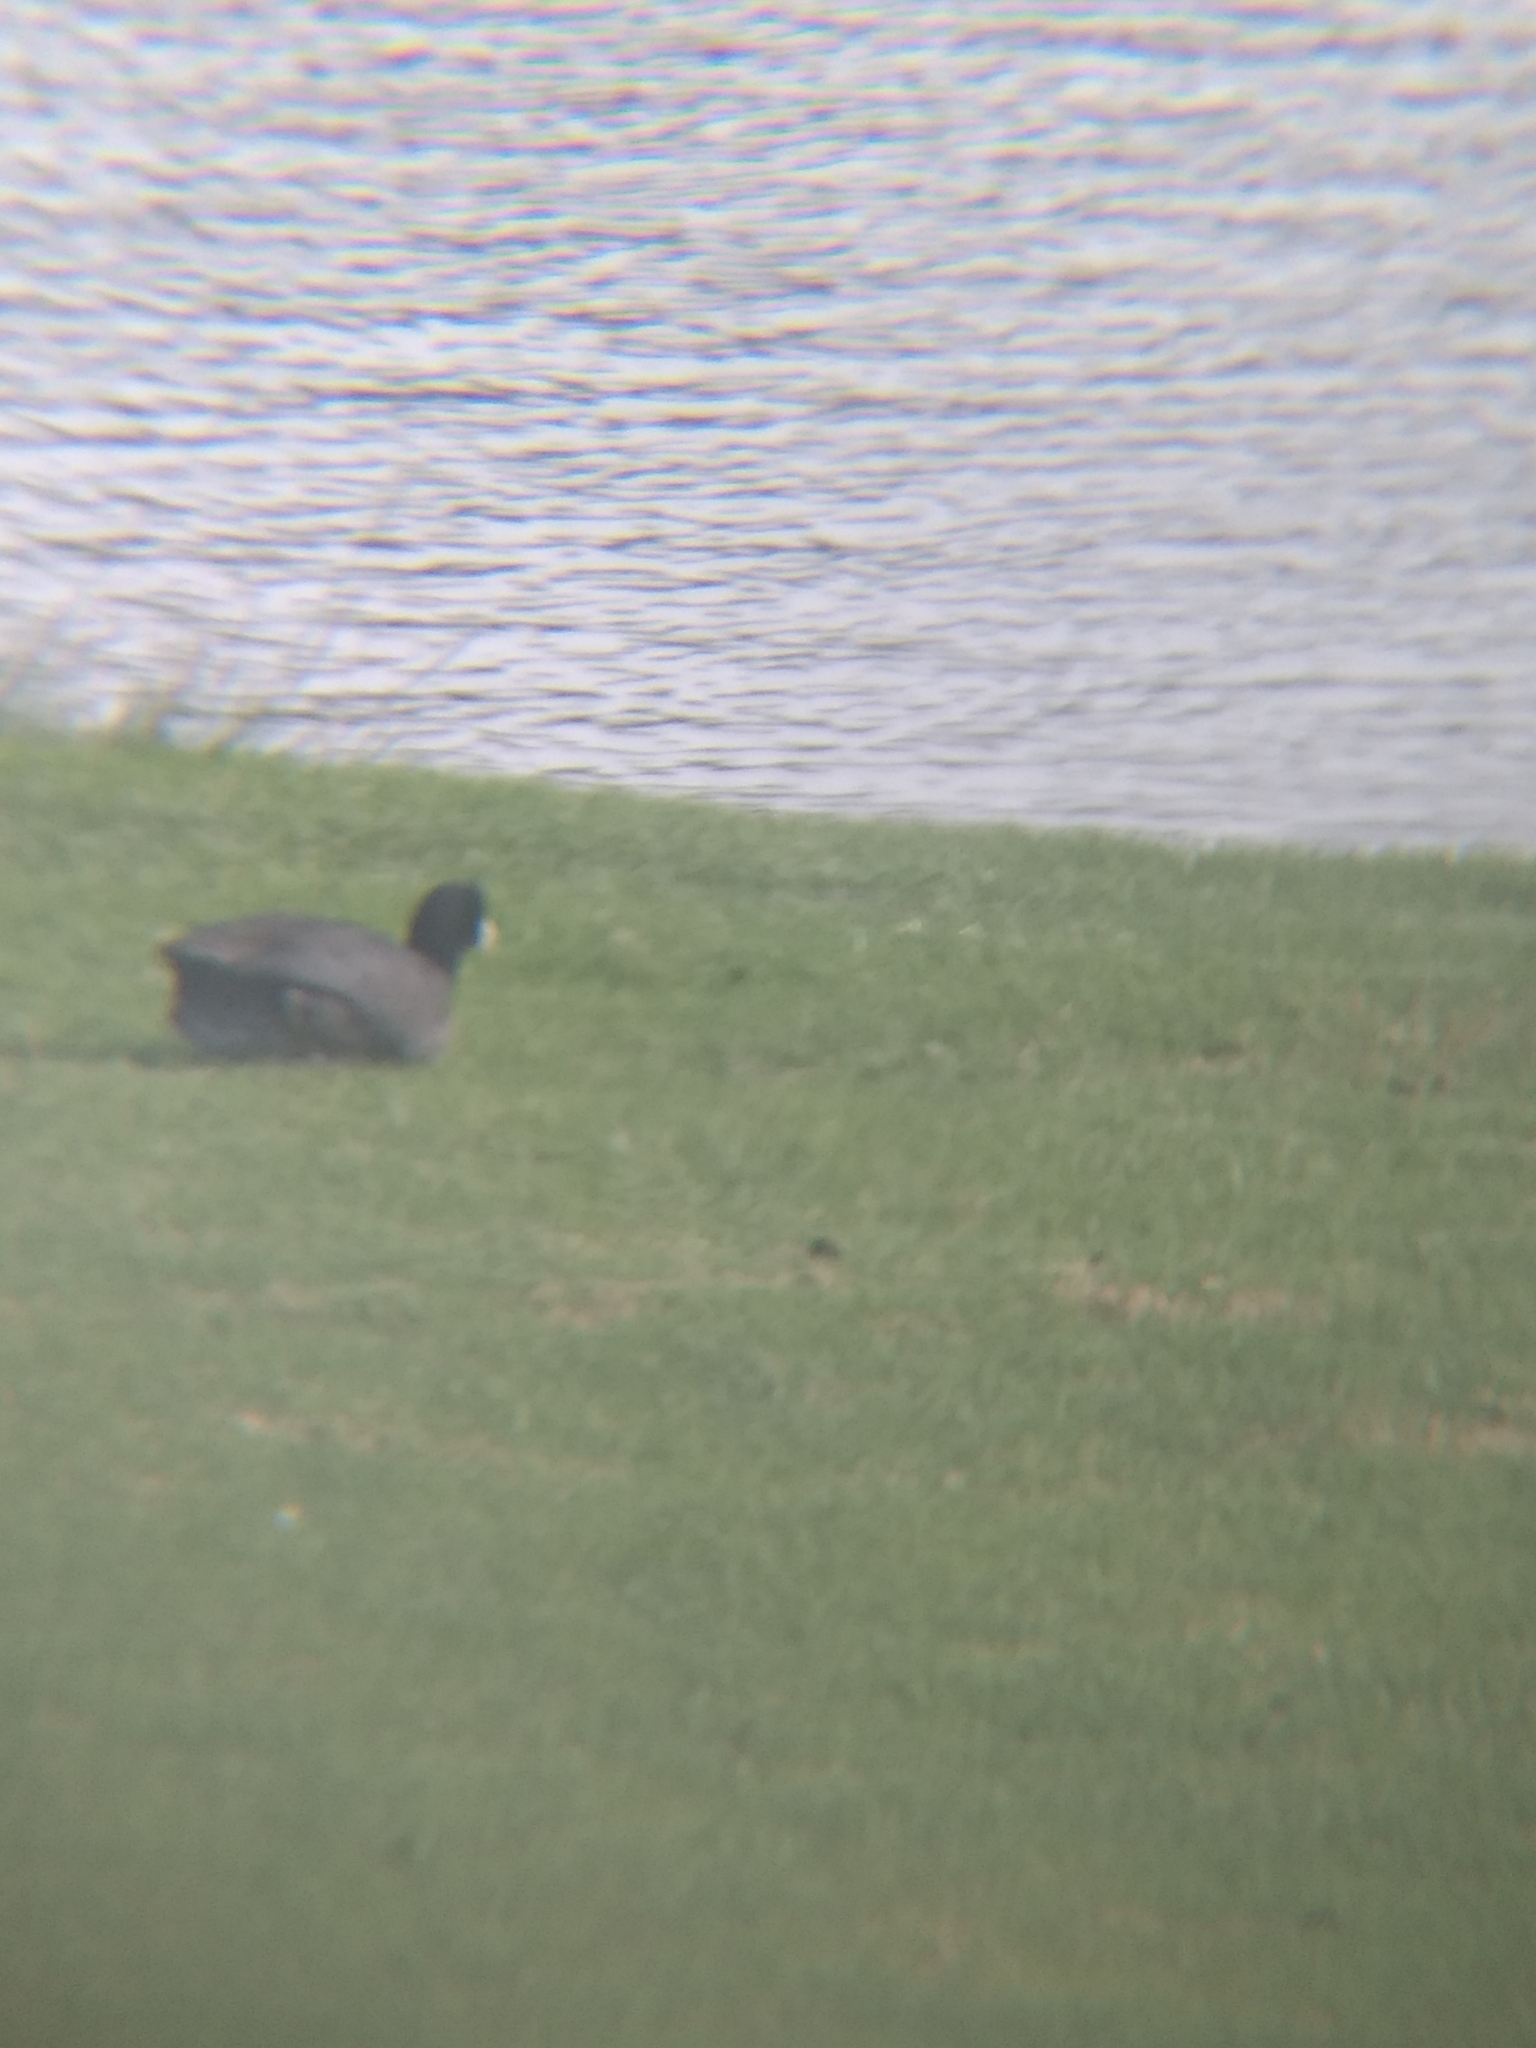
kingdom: Animalia
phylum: Chordata
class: Aves
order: Gruiformes
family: Rallidae
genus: Fulica
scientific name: Fulica americana
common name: American coot
